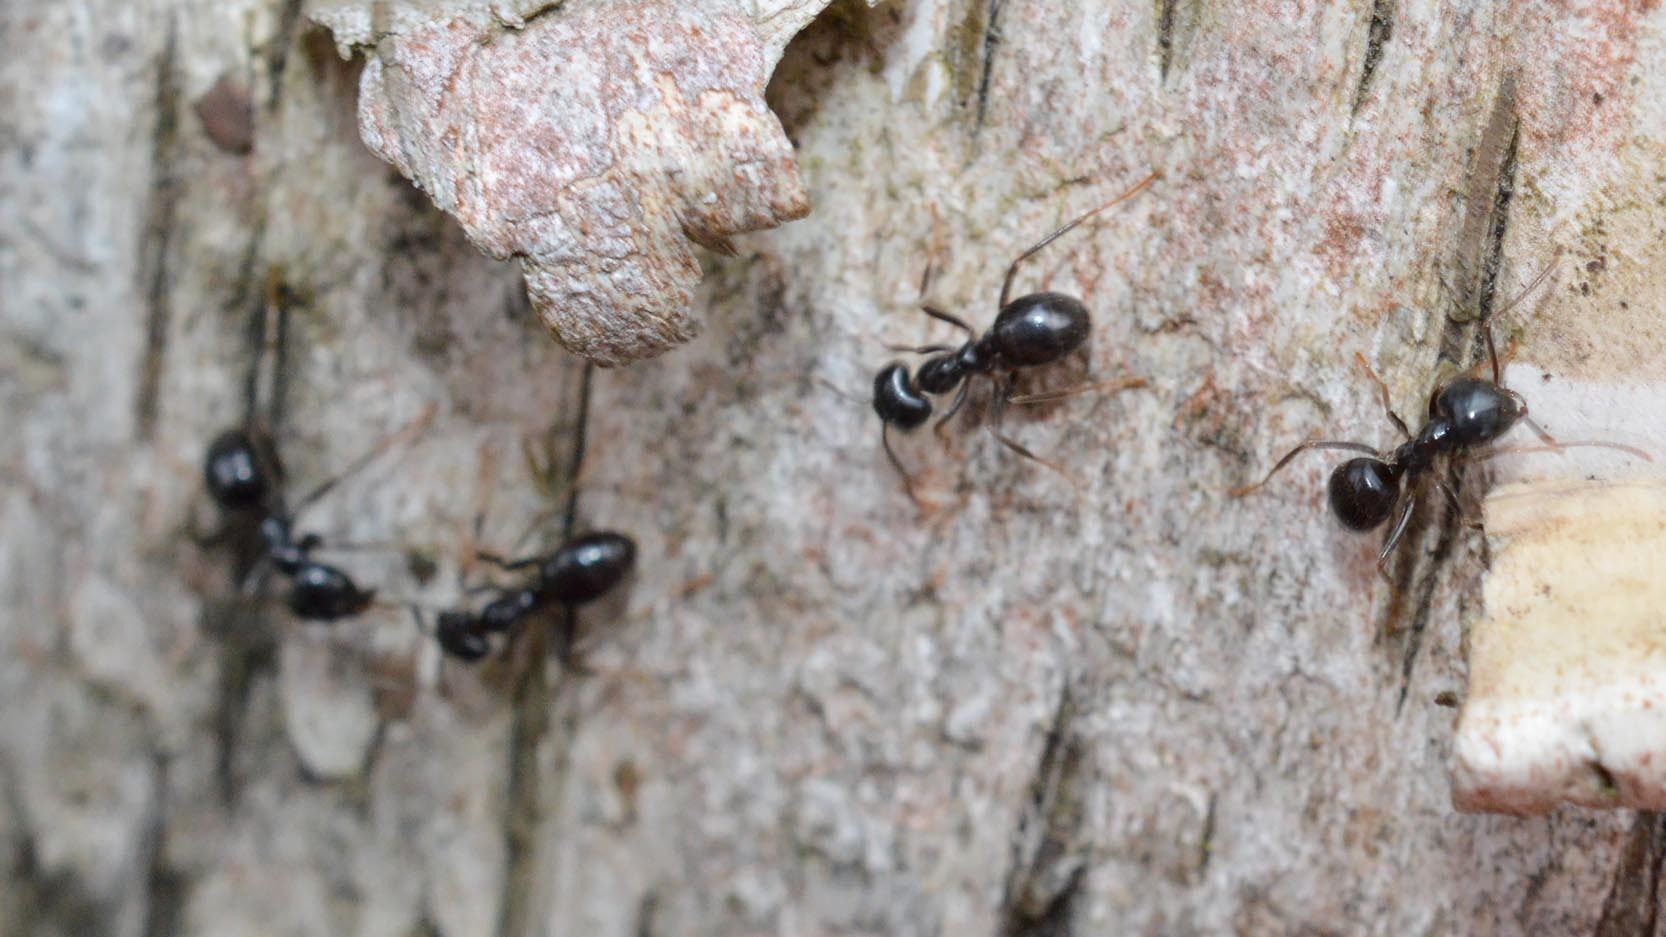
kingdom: Animalia
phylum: Arthropoda
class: Insecta
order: Hymenoptera
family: Formicidae
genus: Lasius
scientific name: Lasius fuliginosus
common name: Jet ant
